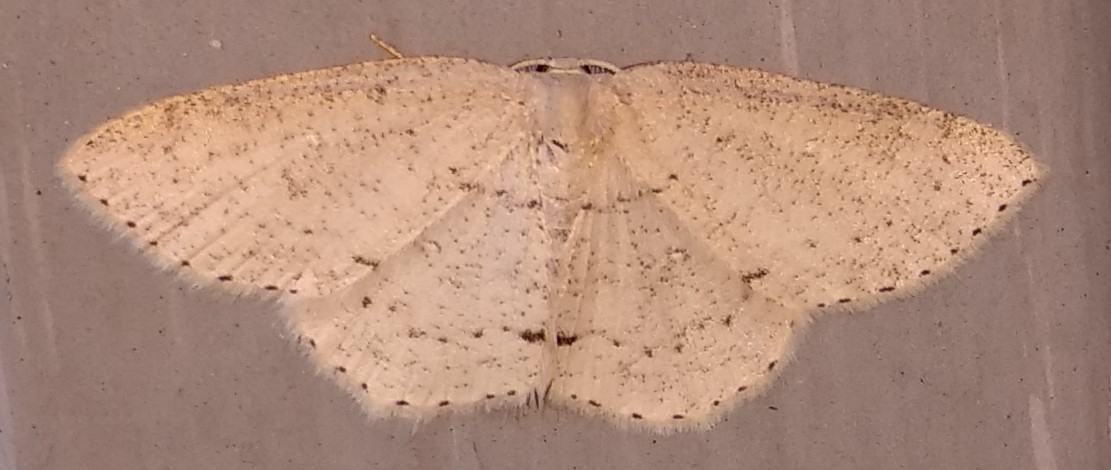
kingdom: Animalia
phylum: Arthropoda
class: Insecta
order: Lepidoptera
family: Geometridae
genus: Cyclophora
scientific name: Cyclophora pendulinaria
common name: Sweet fern geometer
